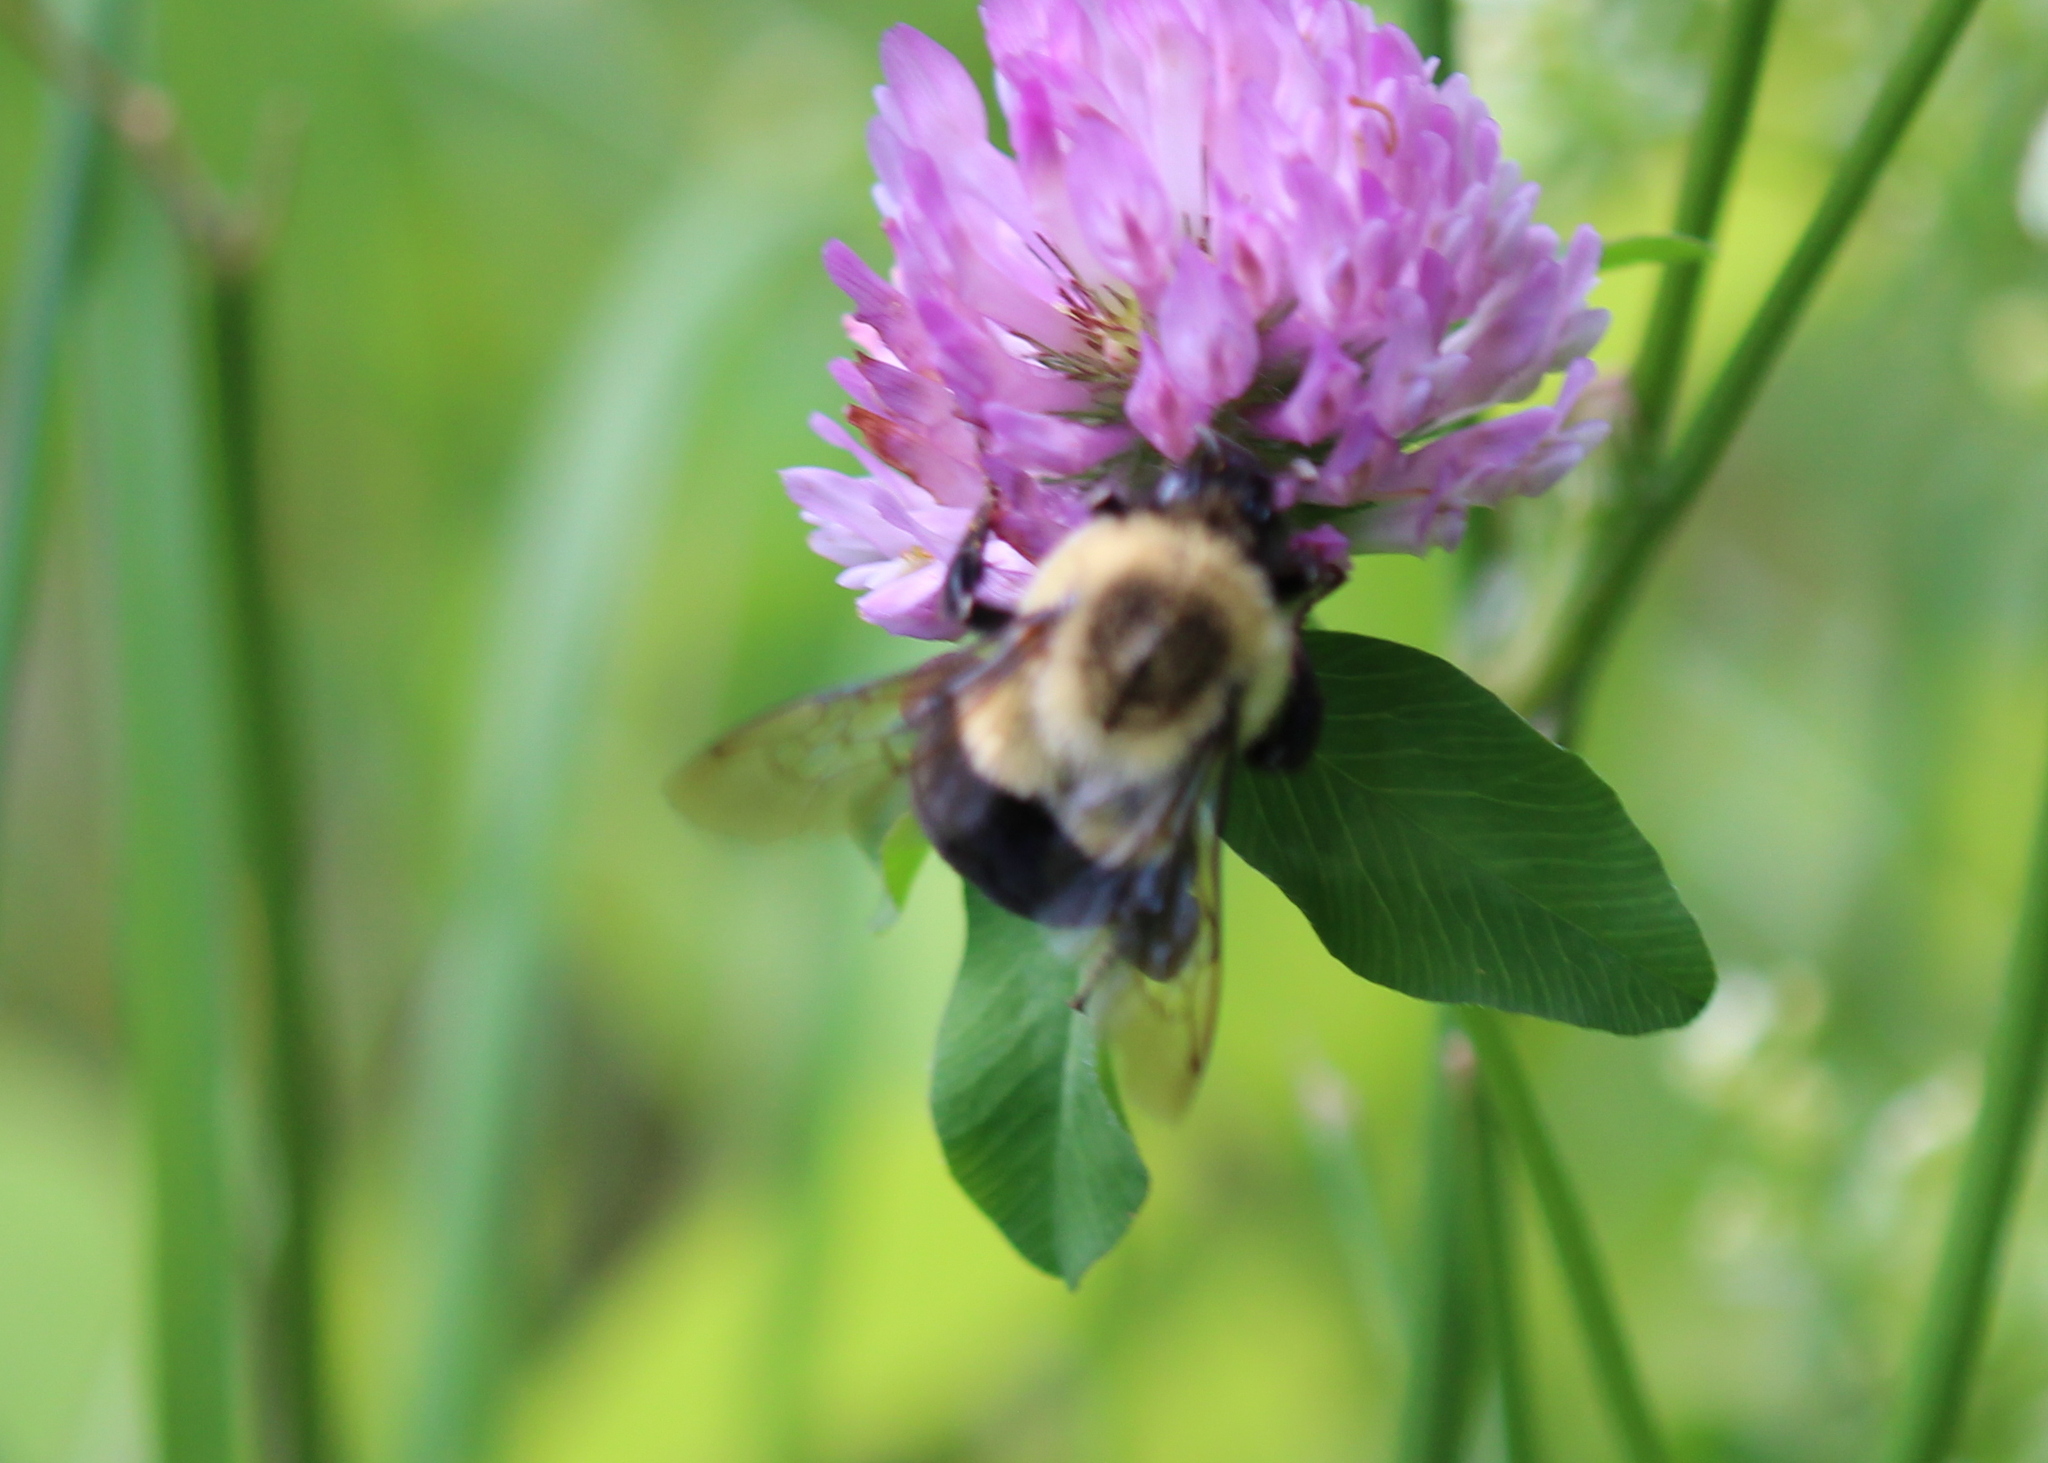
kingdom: Animalia
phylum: Arthropoda
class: Insecta
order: Hymenoptera
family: Apidae
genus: Bombus
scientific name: Bombus impatiens
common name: Common eastern bumble bee
